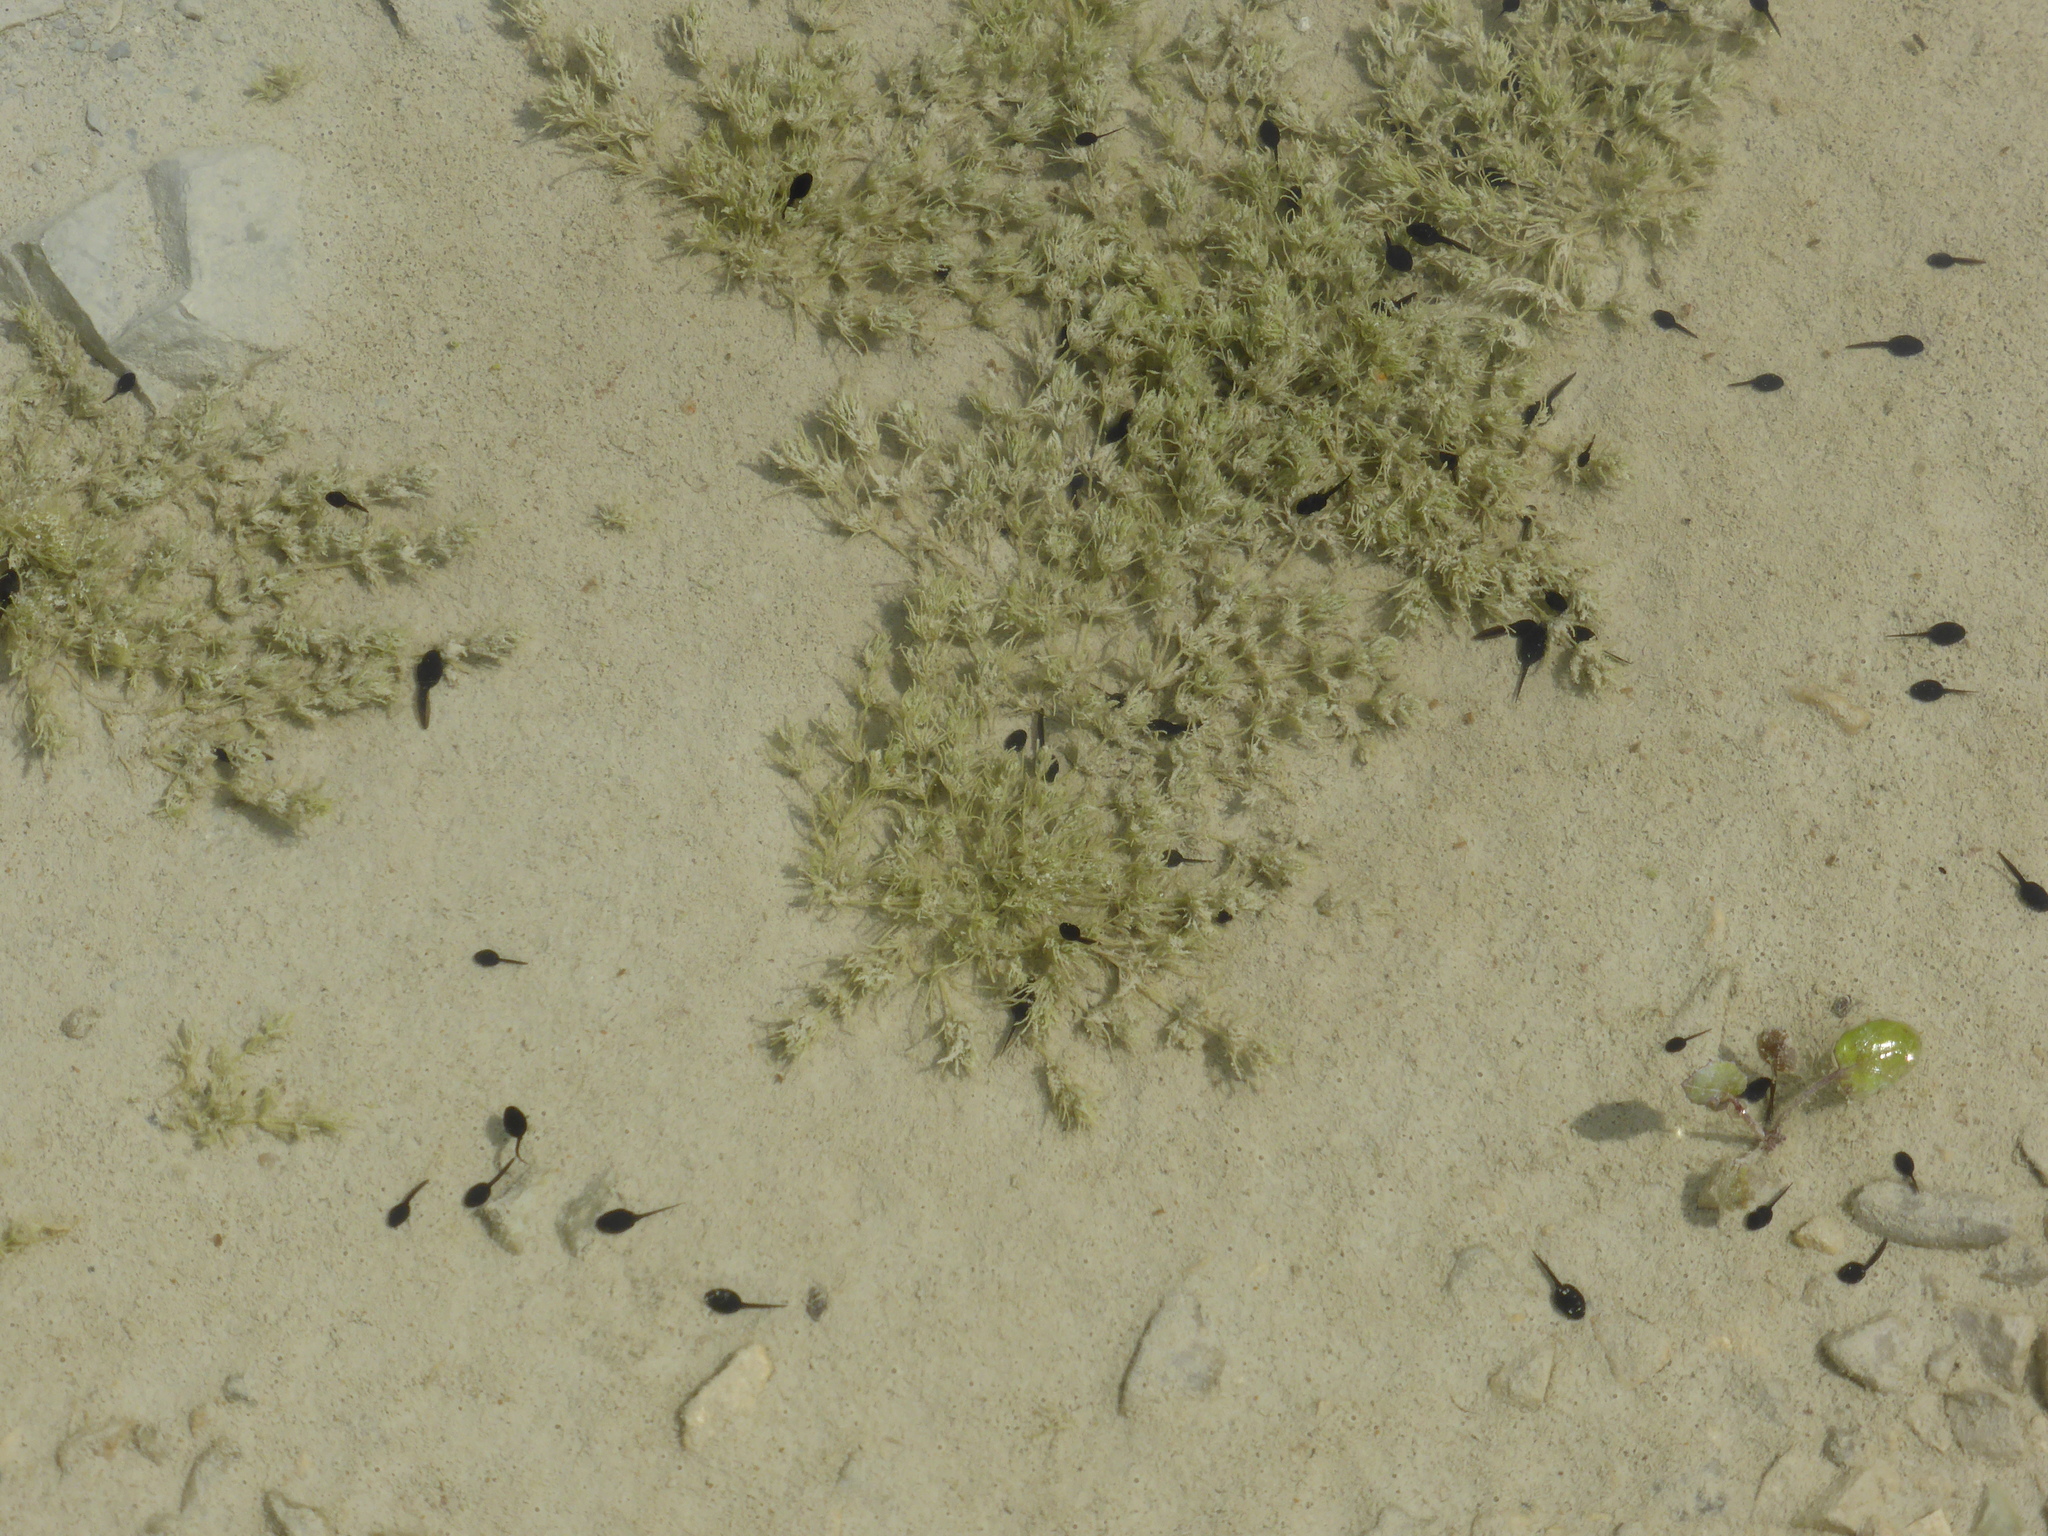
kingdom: Animalia
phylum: Chordata
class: Amphibia
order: Anura
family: Bufonidae
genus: Epidalea
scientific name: Epidalea calamita
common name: Natterjack toad
